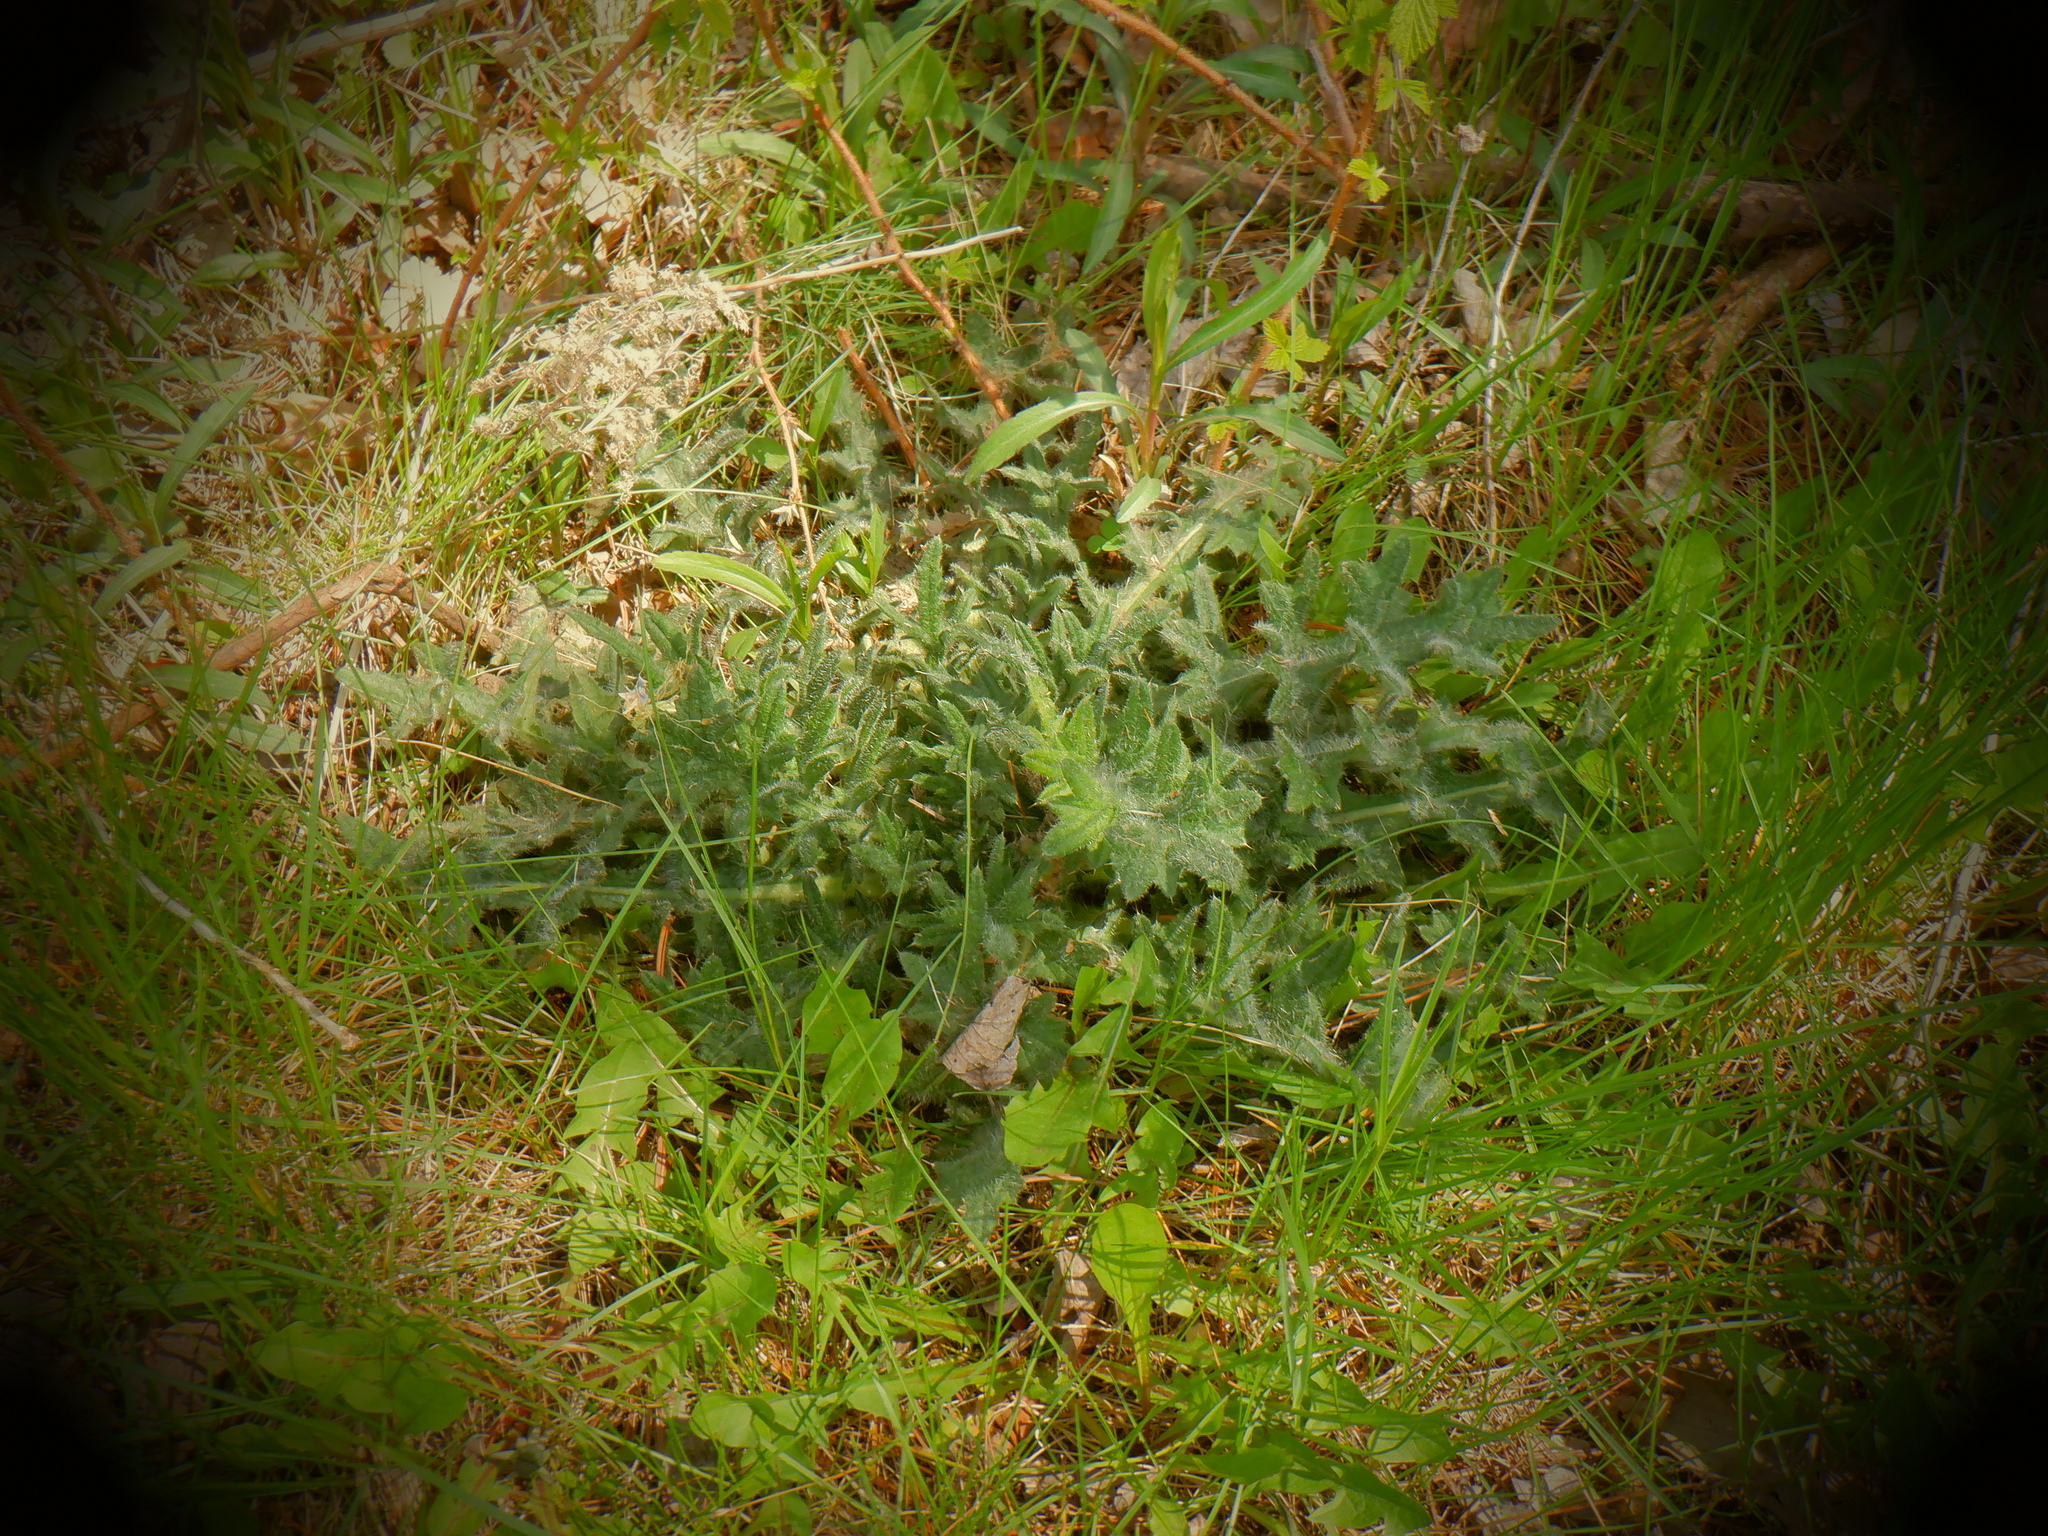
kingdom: Plantae
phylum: Tracheophyta
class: Magnoliopsida
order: Asterales
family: Asteraceae
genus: Cirsium
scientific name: Cirsium vulgare
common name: Bull thistle
